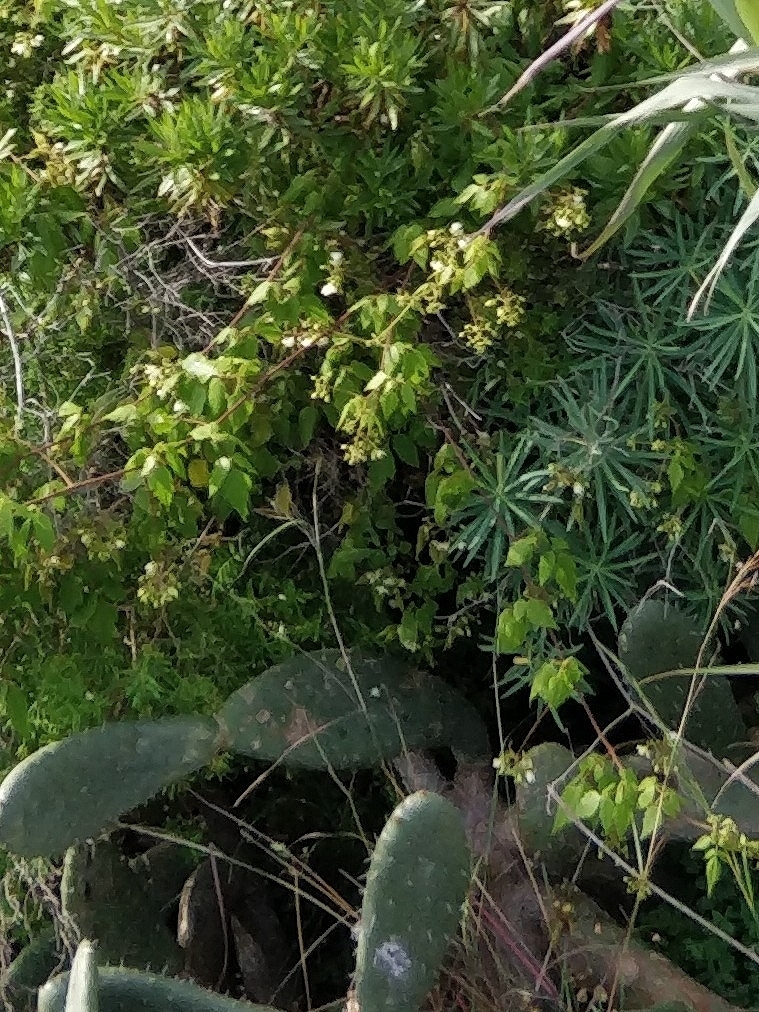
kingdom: Plantae
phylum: Tracheophyta
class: Magnoliopsida
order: Sapindales
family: Sapindaceae
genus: Cardiospermum
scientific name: Cardiospermum grandiflorum
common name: Balloon vine
